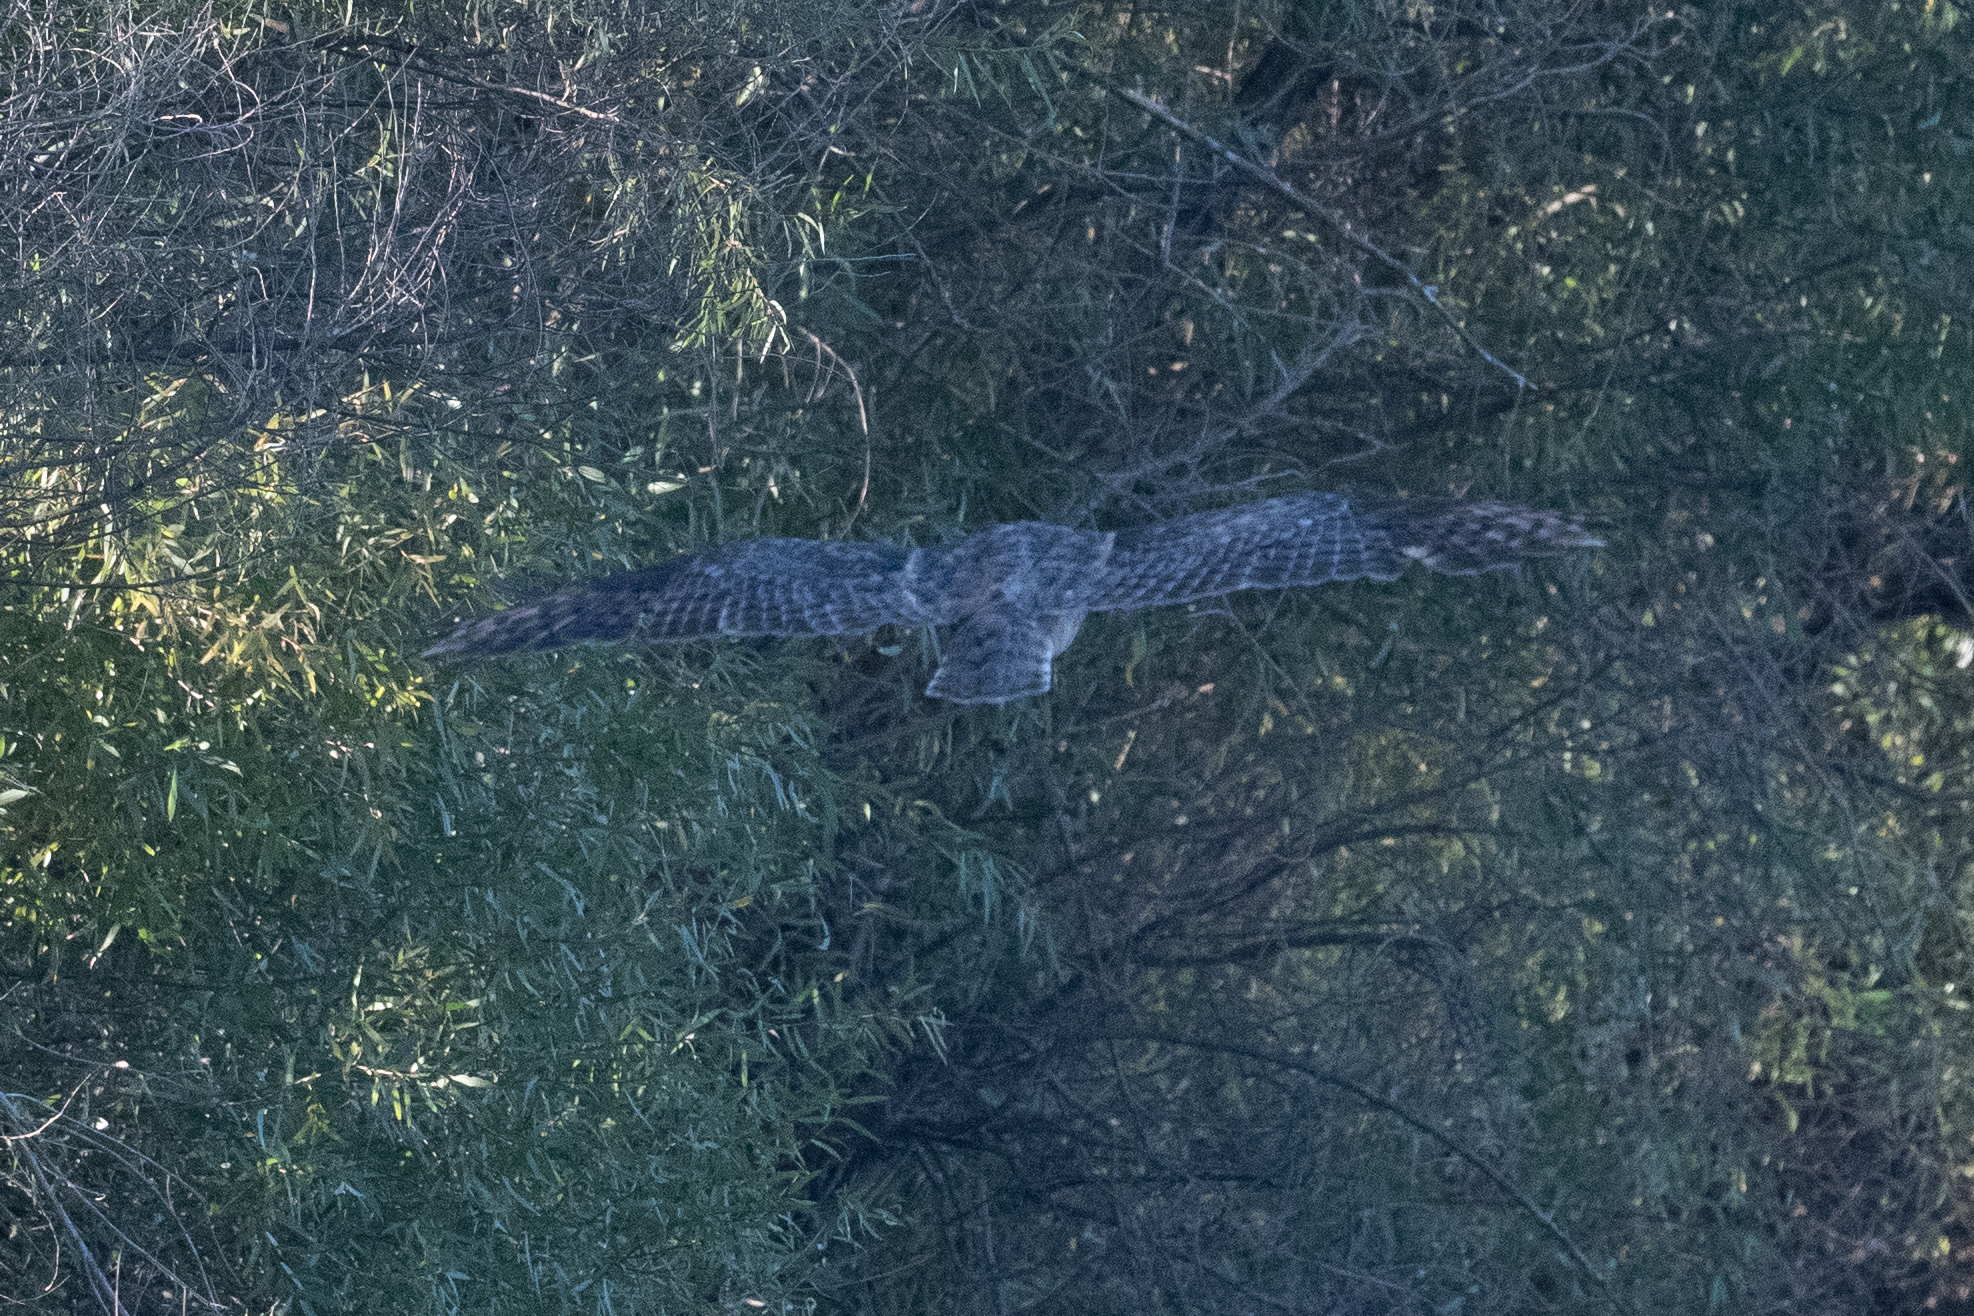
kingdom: Animalia
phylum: Chordata
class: Aves
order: Strigiformes
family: Strigidae
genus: Bubo
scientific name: Bubo virginianus
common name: Great horned owl
